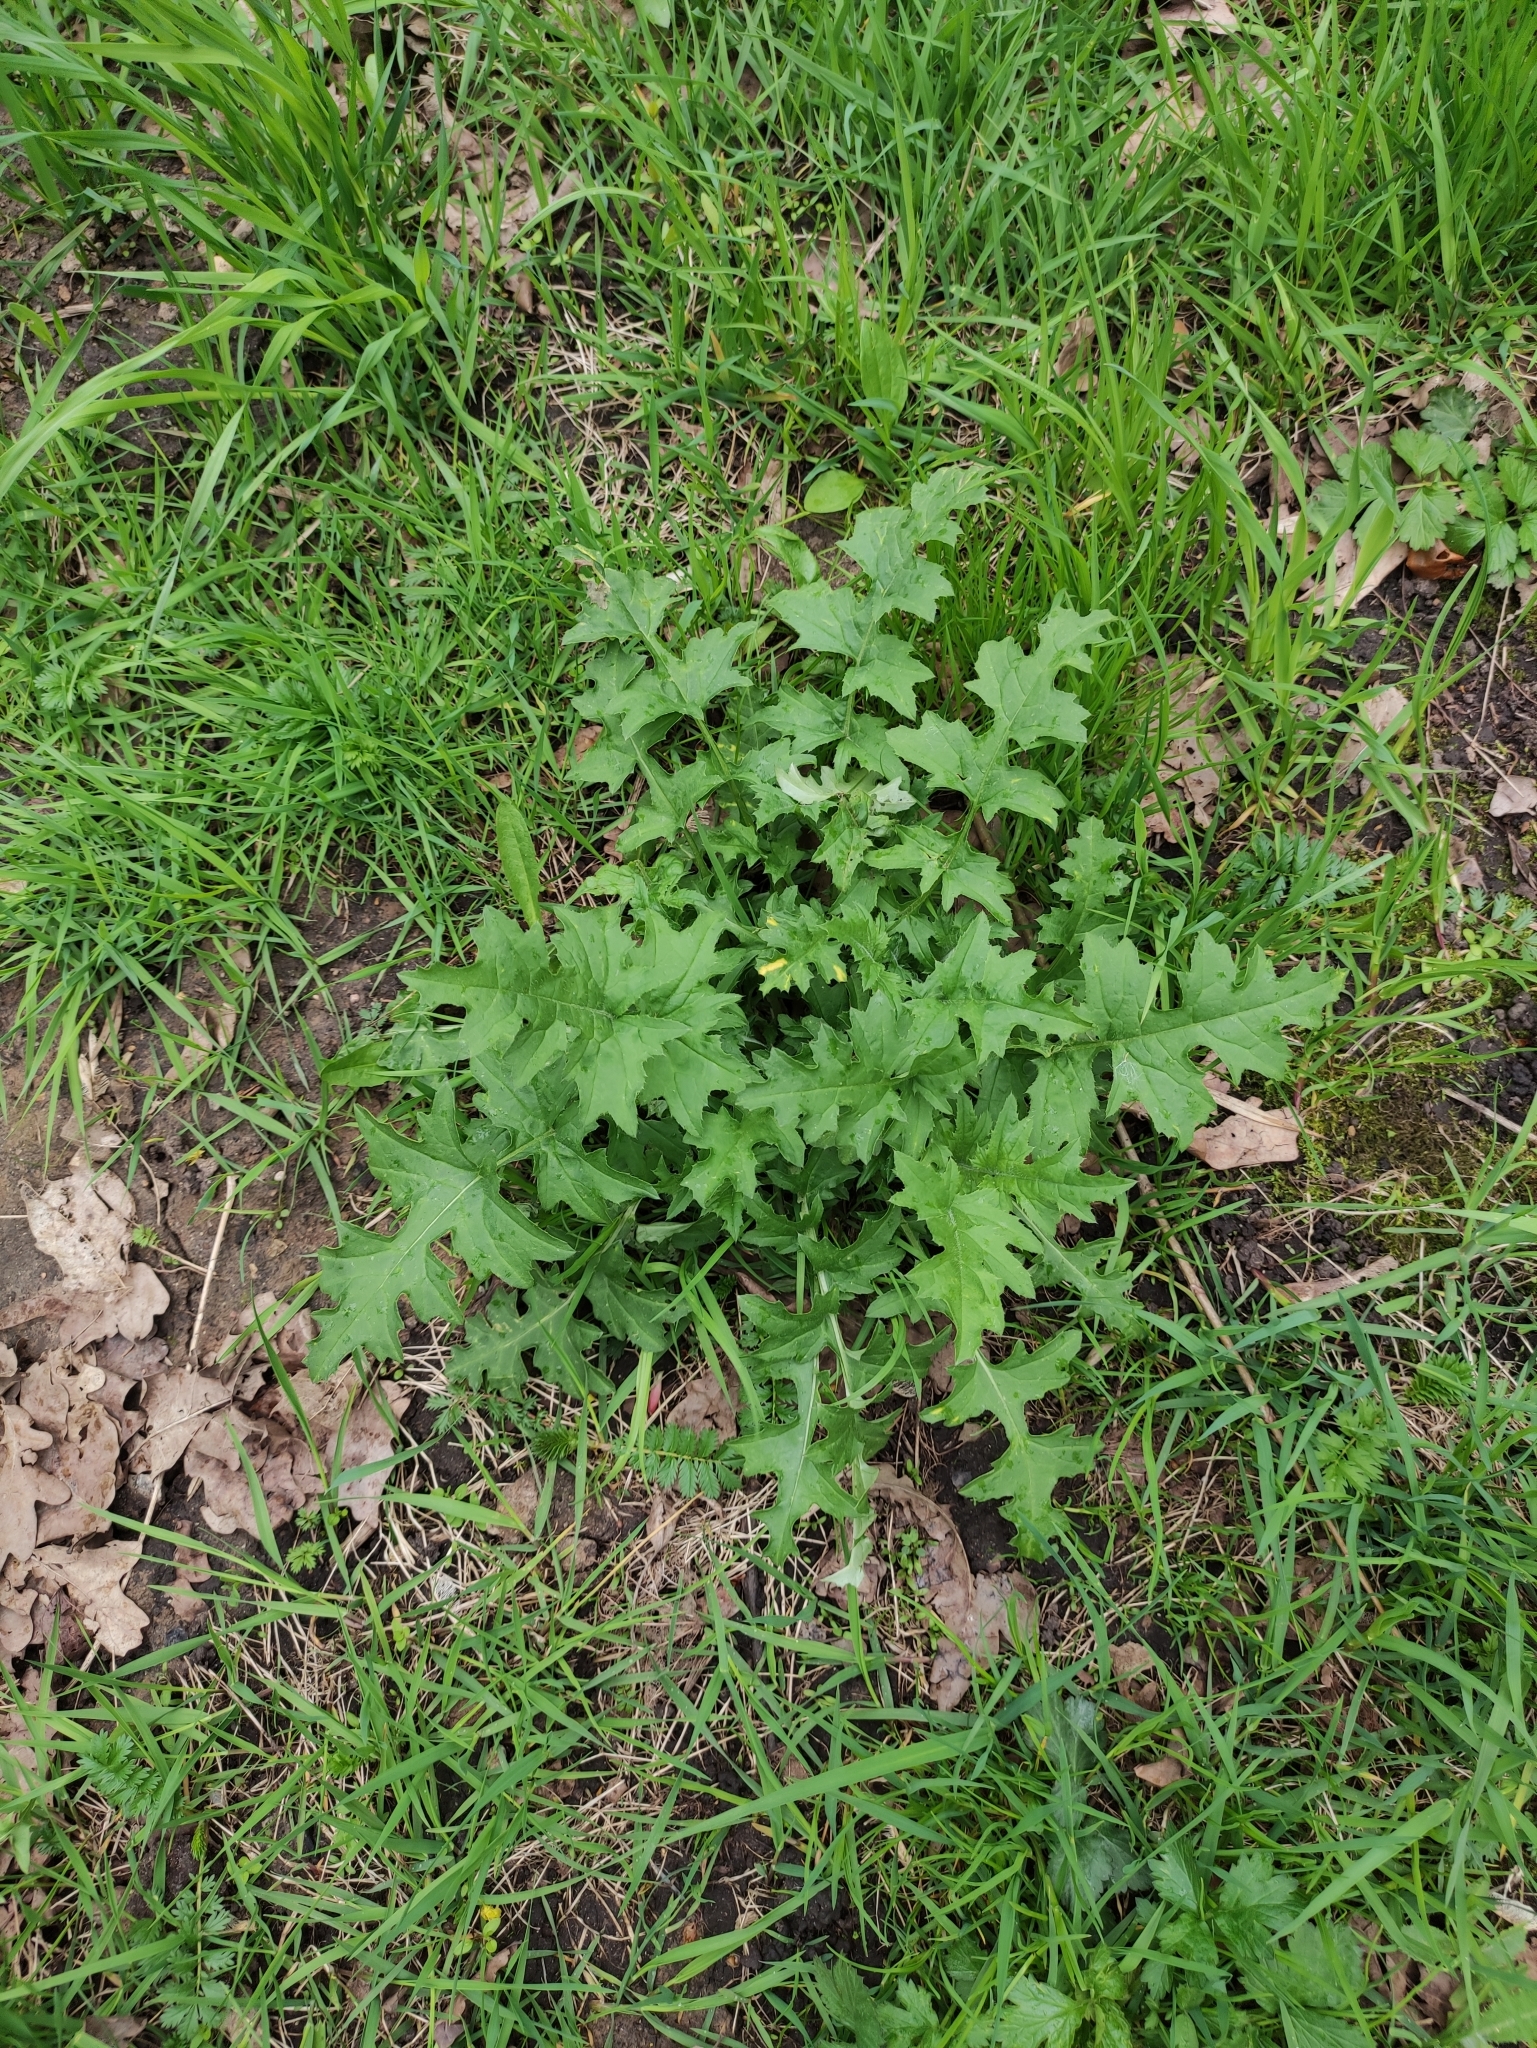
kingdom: Plantae
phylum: Tracheophyta
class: Magnoliopsida
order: Asterales
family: Asteraceae
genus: Carduus
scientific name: Carduus crispus
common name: Welted thistle
